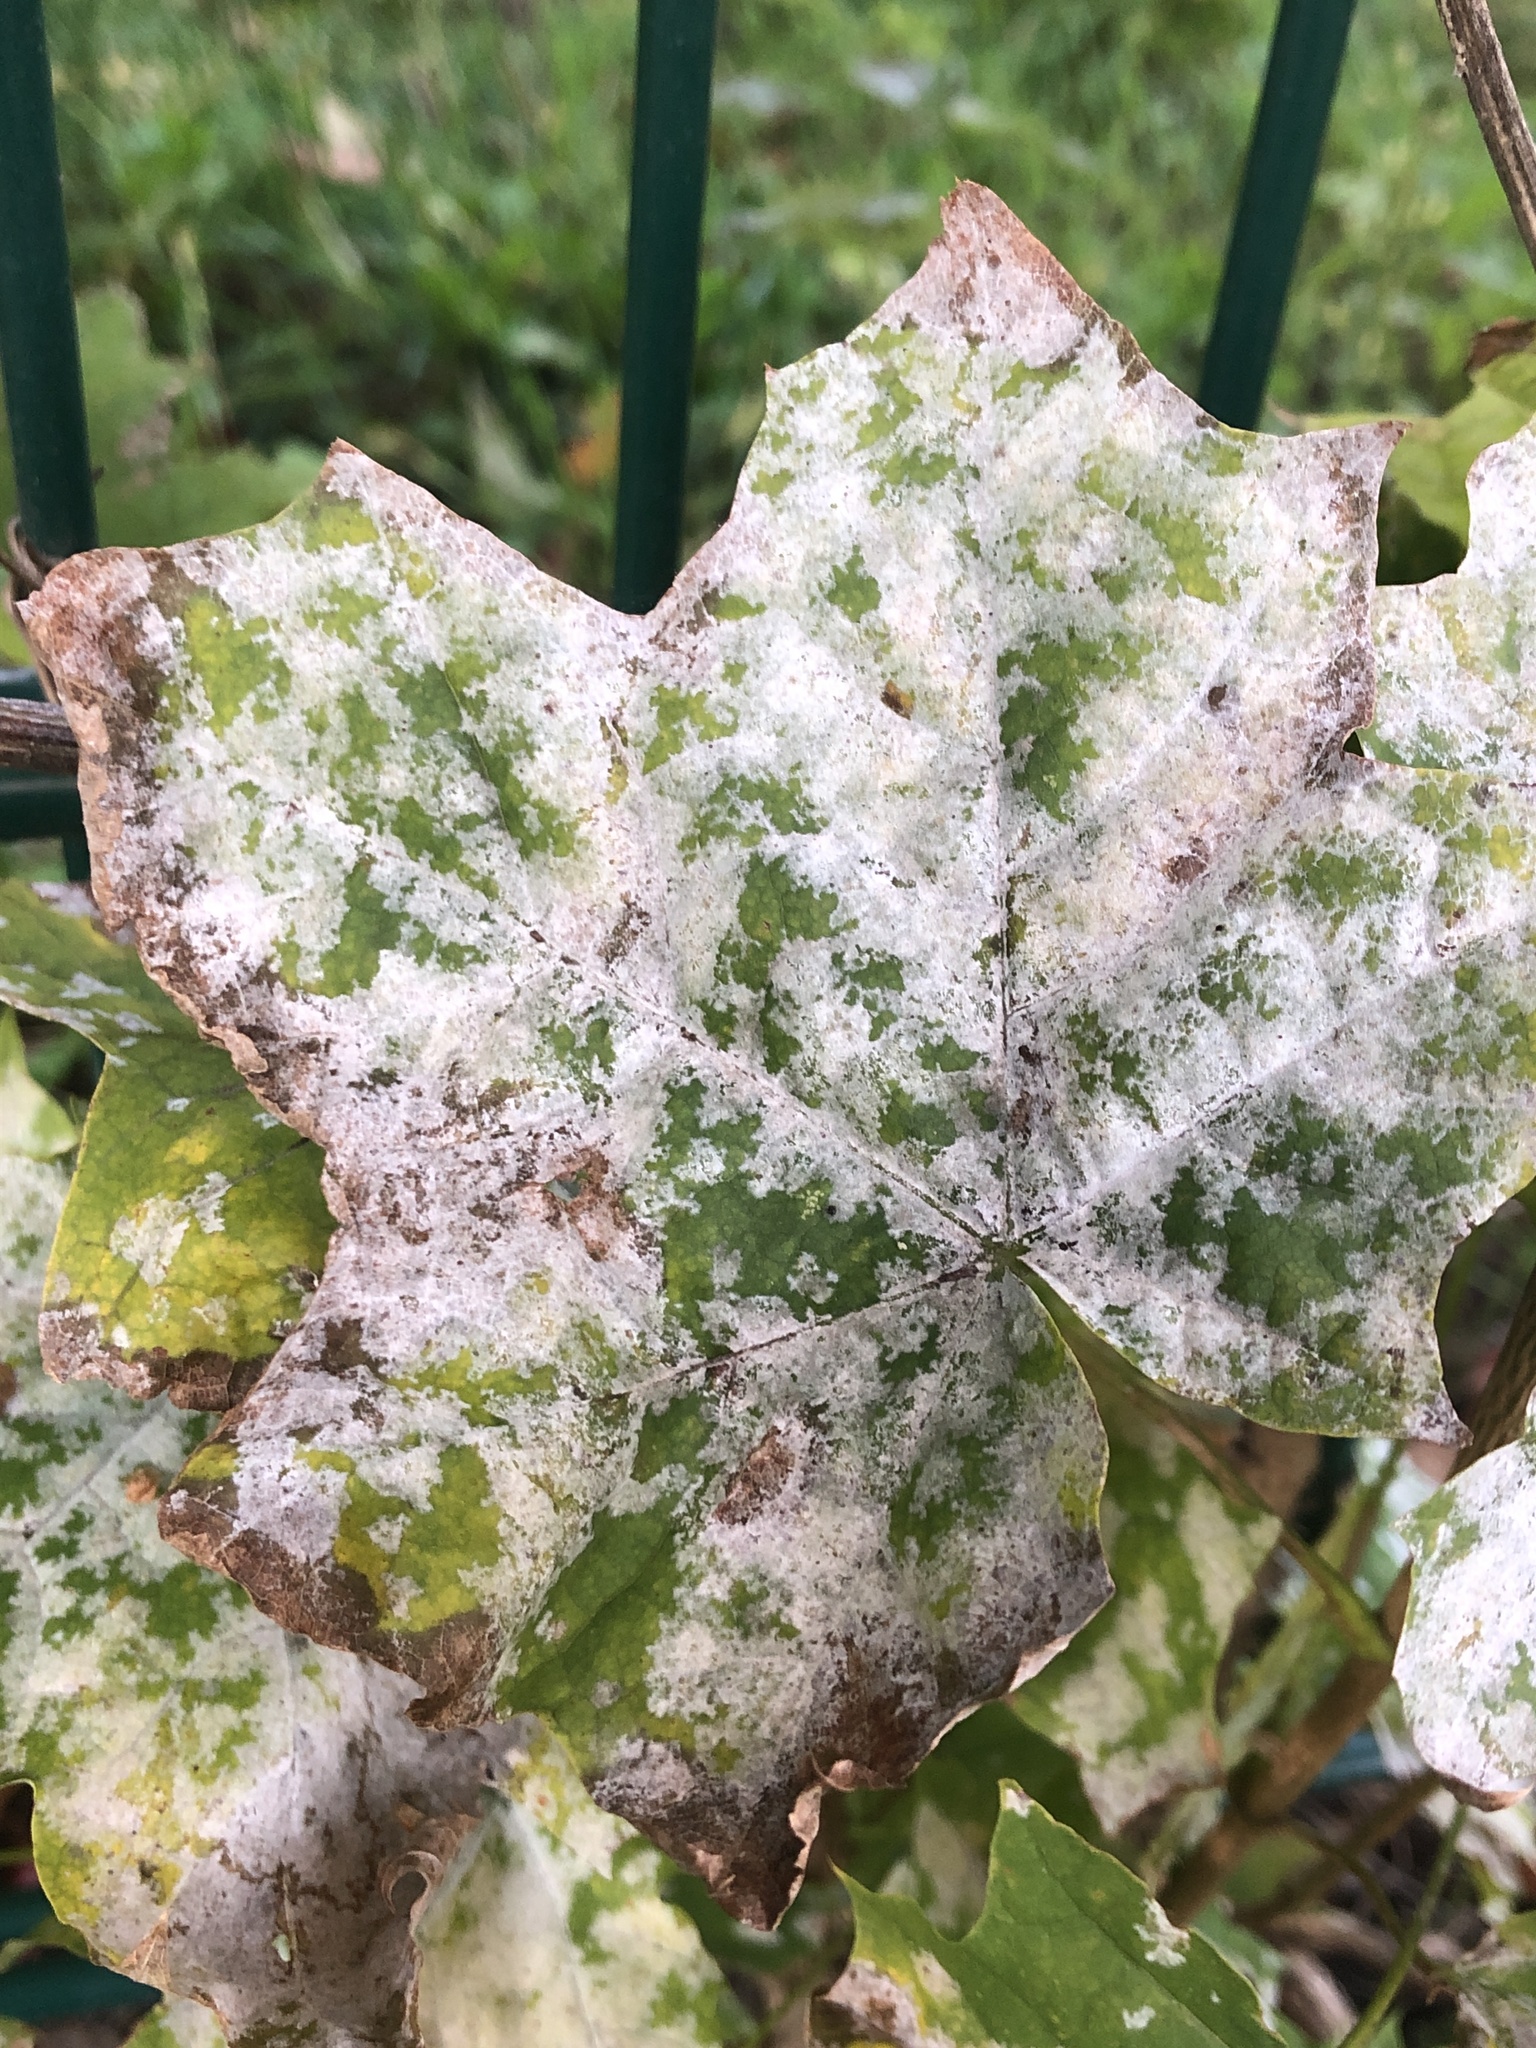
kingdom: Fungi
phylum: Ascomycota
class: Leotiomycetes
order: Helotiales
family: Erysiphaceae
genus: Sawadaea
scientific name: Sawadaea tulasnei
